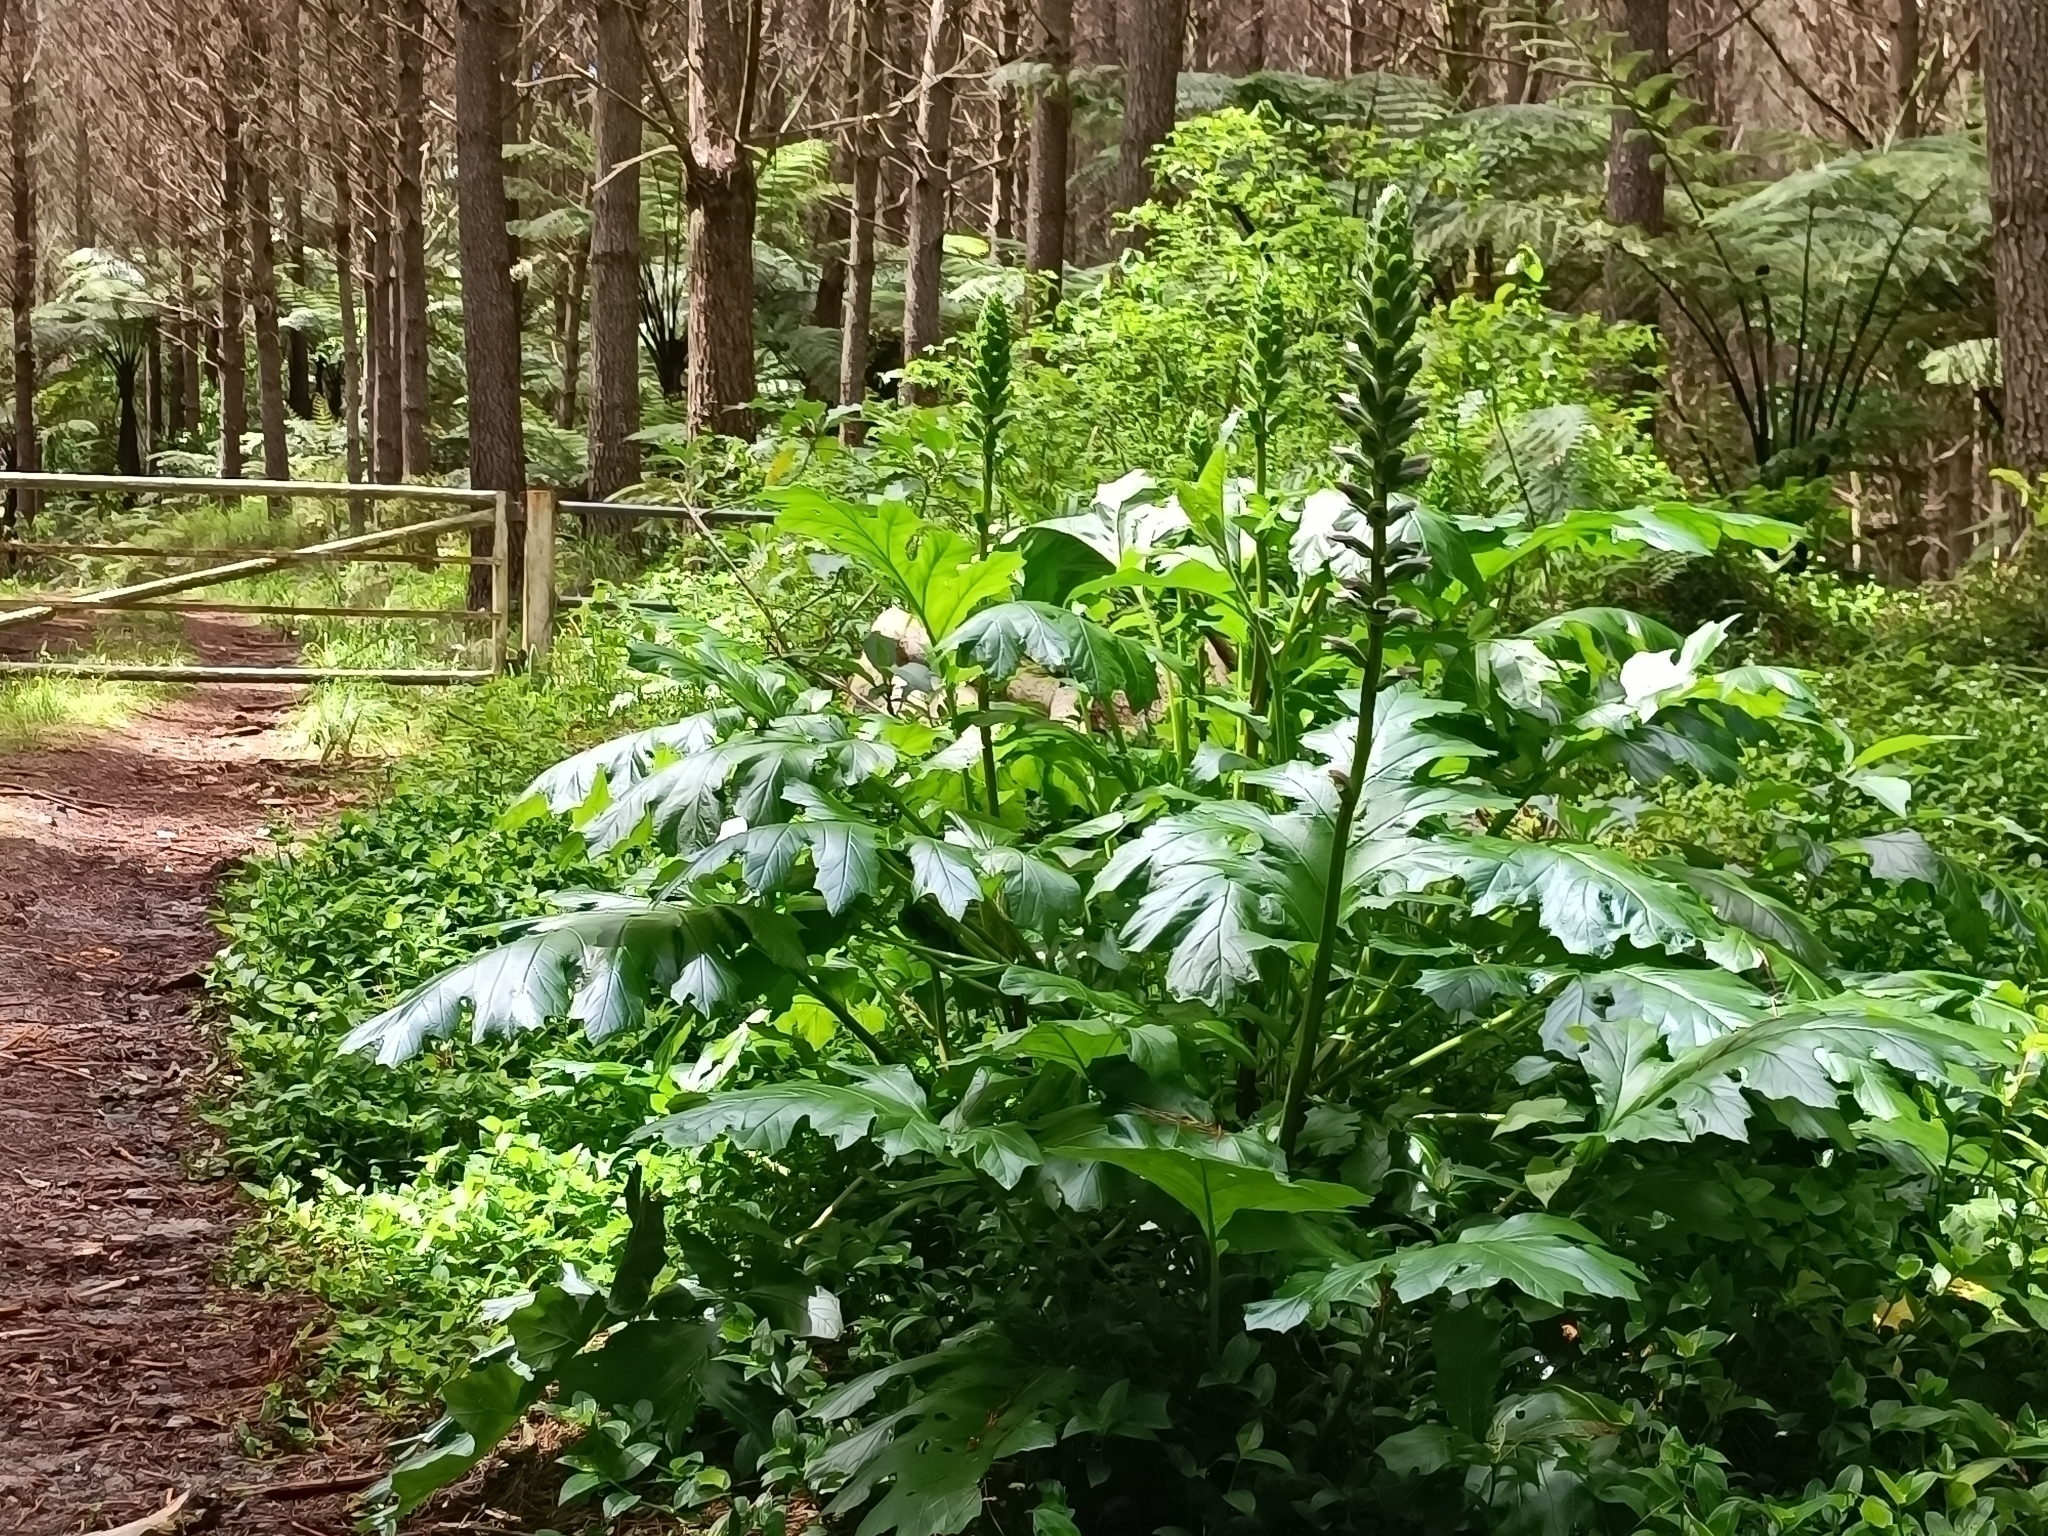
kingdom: Plantae
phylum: Tracheophyta
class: Magnoliopsida
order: Lamiales
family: Acanthaceae
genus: Acanthus
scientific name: Acanthus mollis
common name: Bear's-breech
